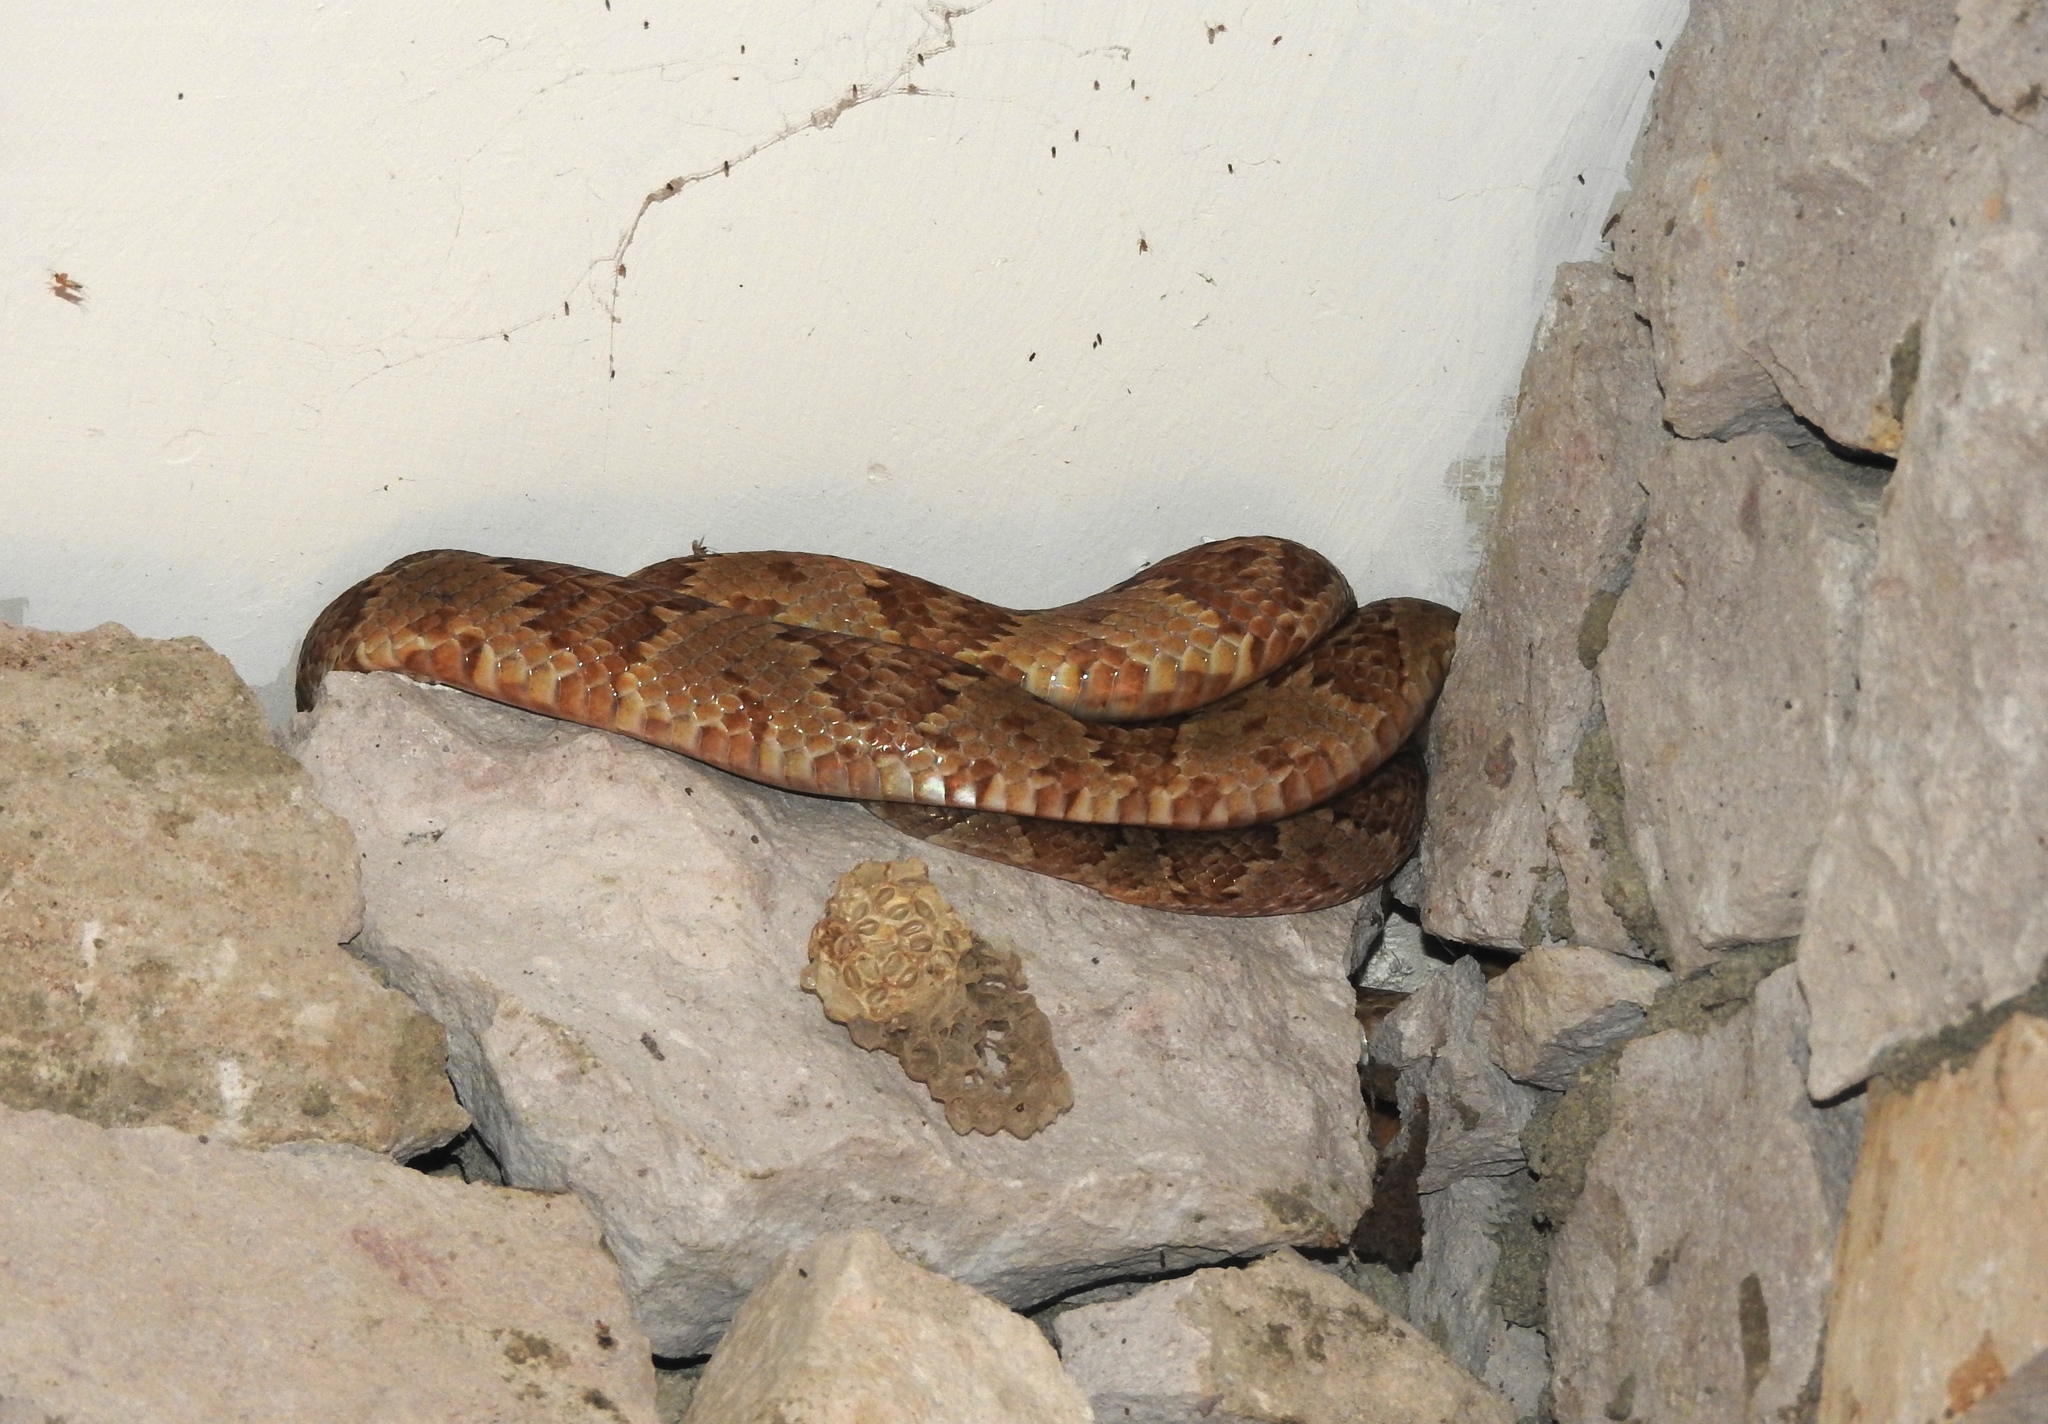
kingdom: Animalia
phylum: Chordata
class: Squamata
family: Colubridae
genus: Trimorphodon
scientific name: Trimorphodon paucimaculatus
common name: Sinaloan lyresnake
